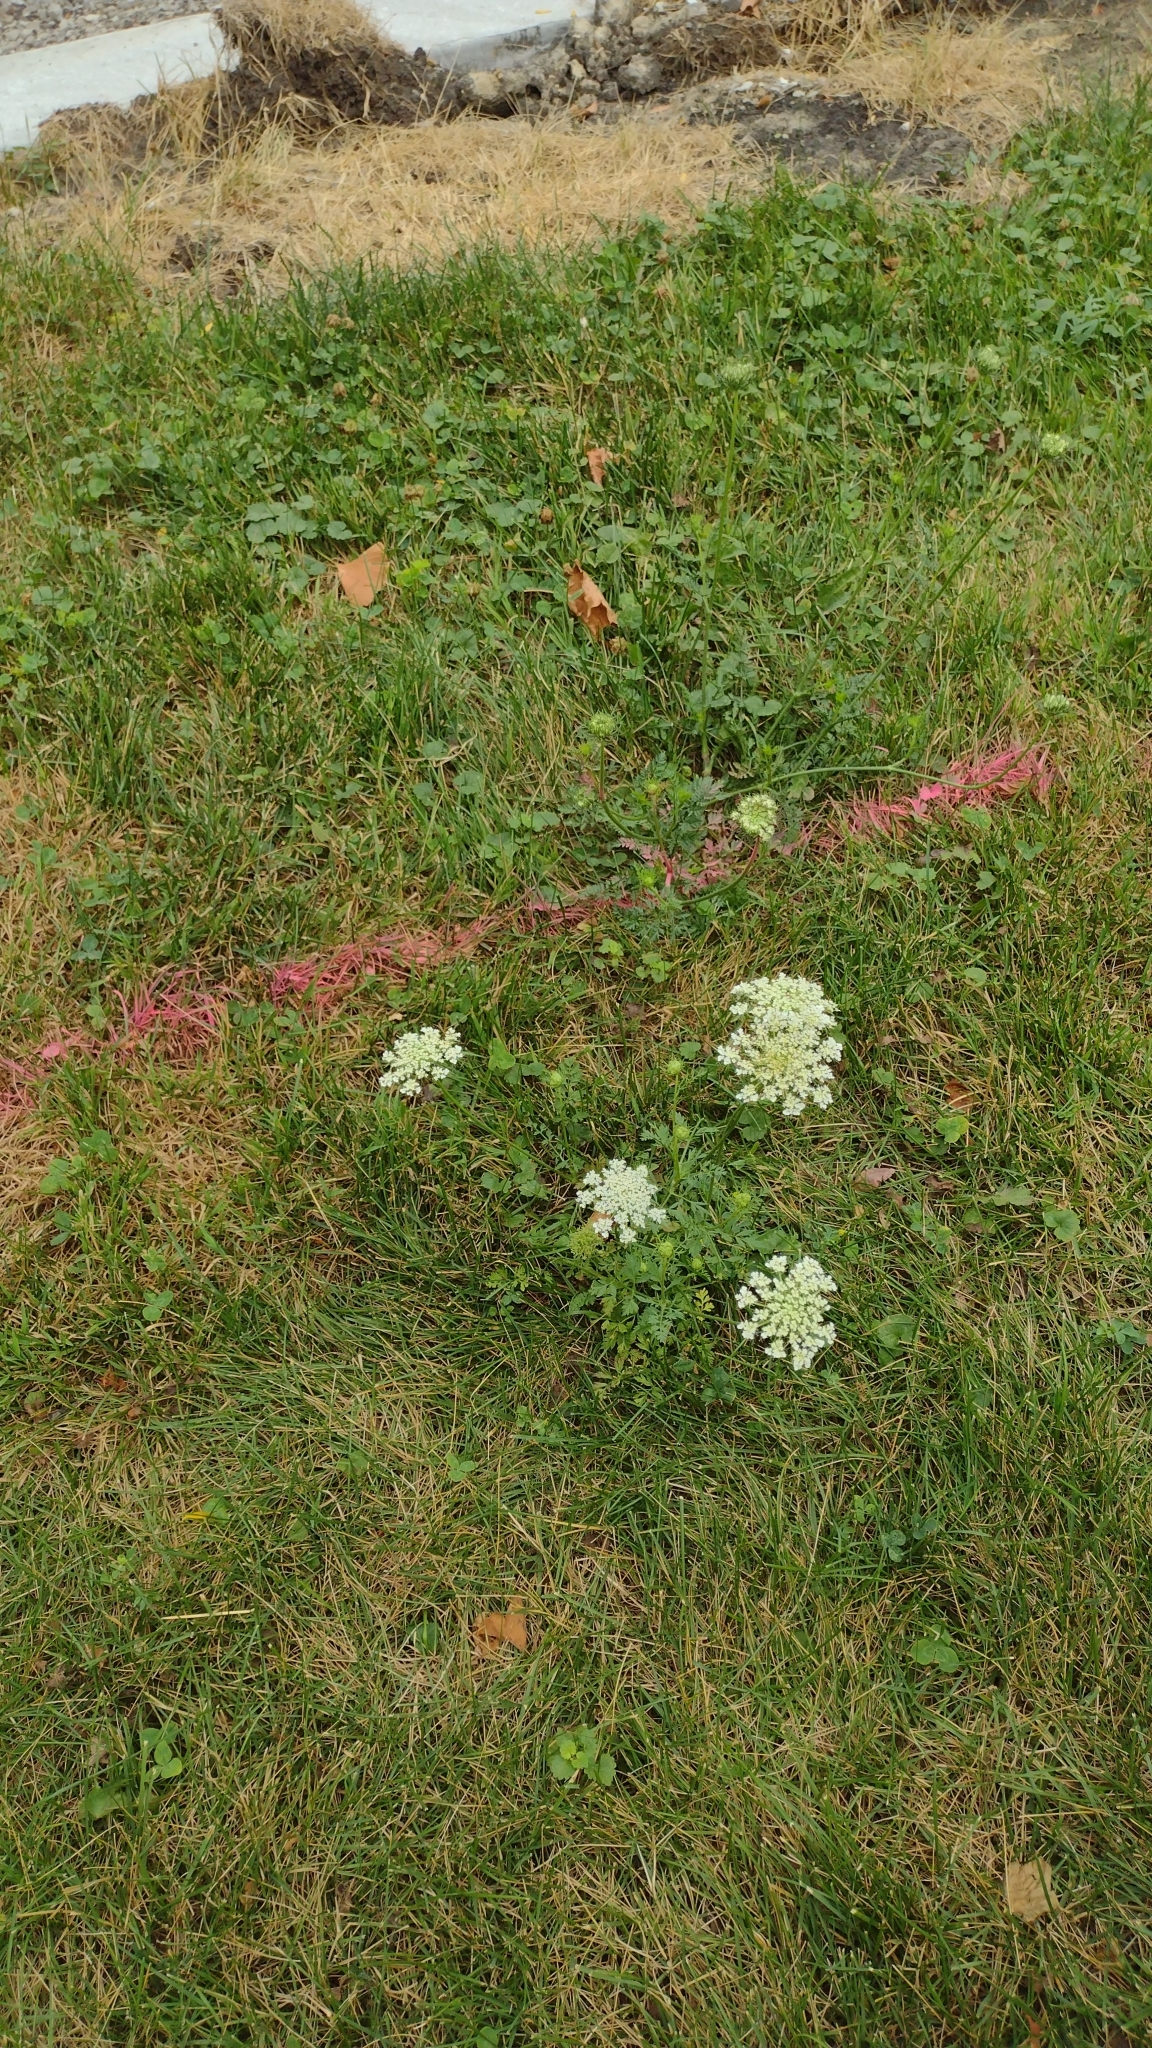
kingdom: Plantae
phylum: Tracheophyta
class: Magnoliopsida
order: Apiales
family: Apiaceae
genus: Daucus
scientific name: Daucus carota
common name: Wild carrot
